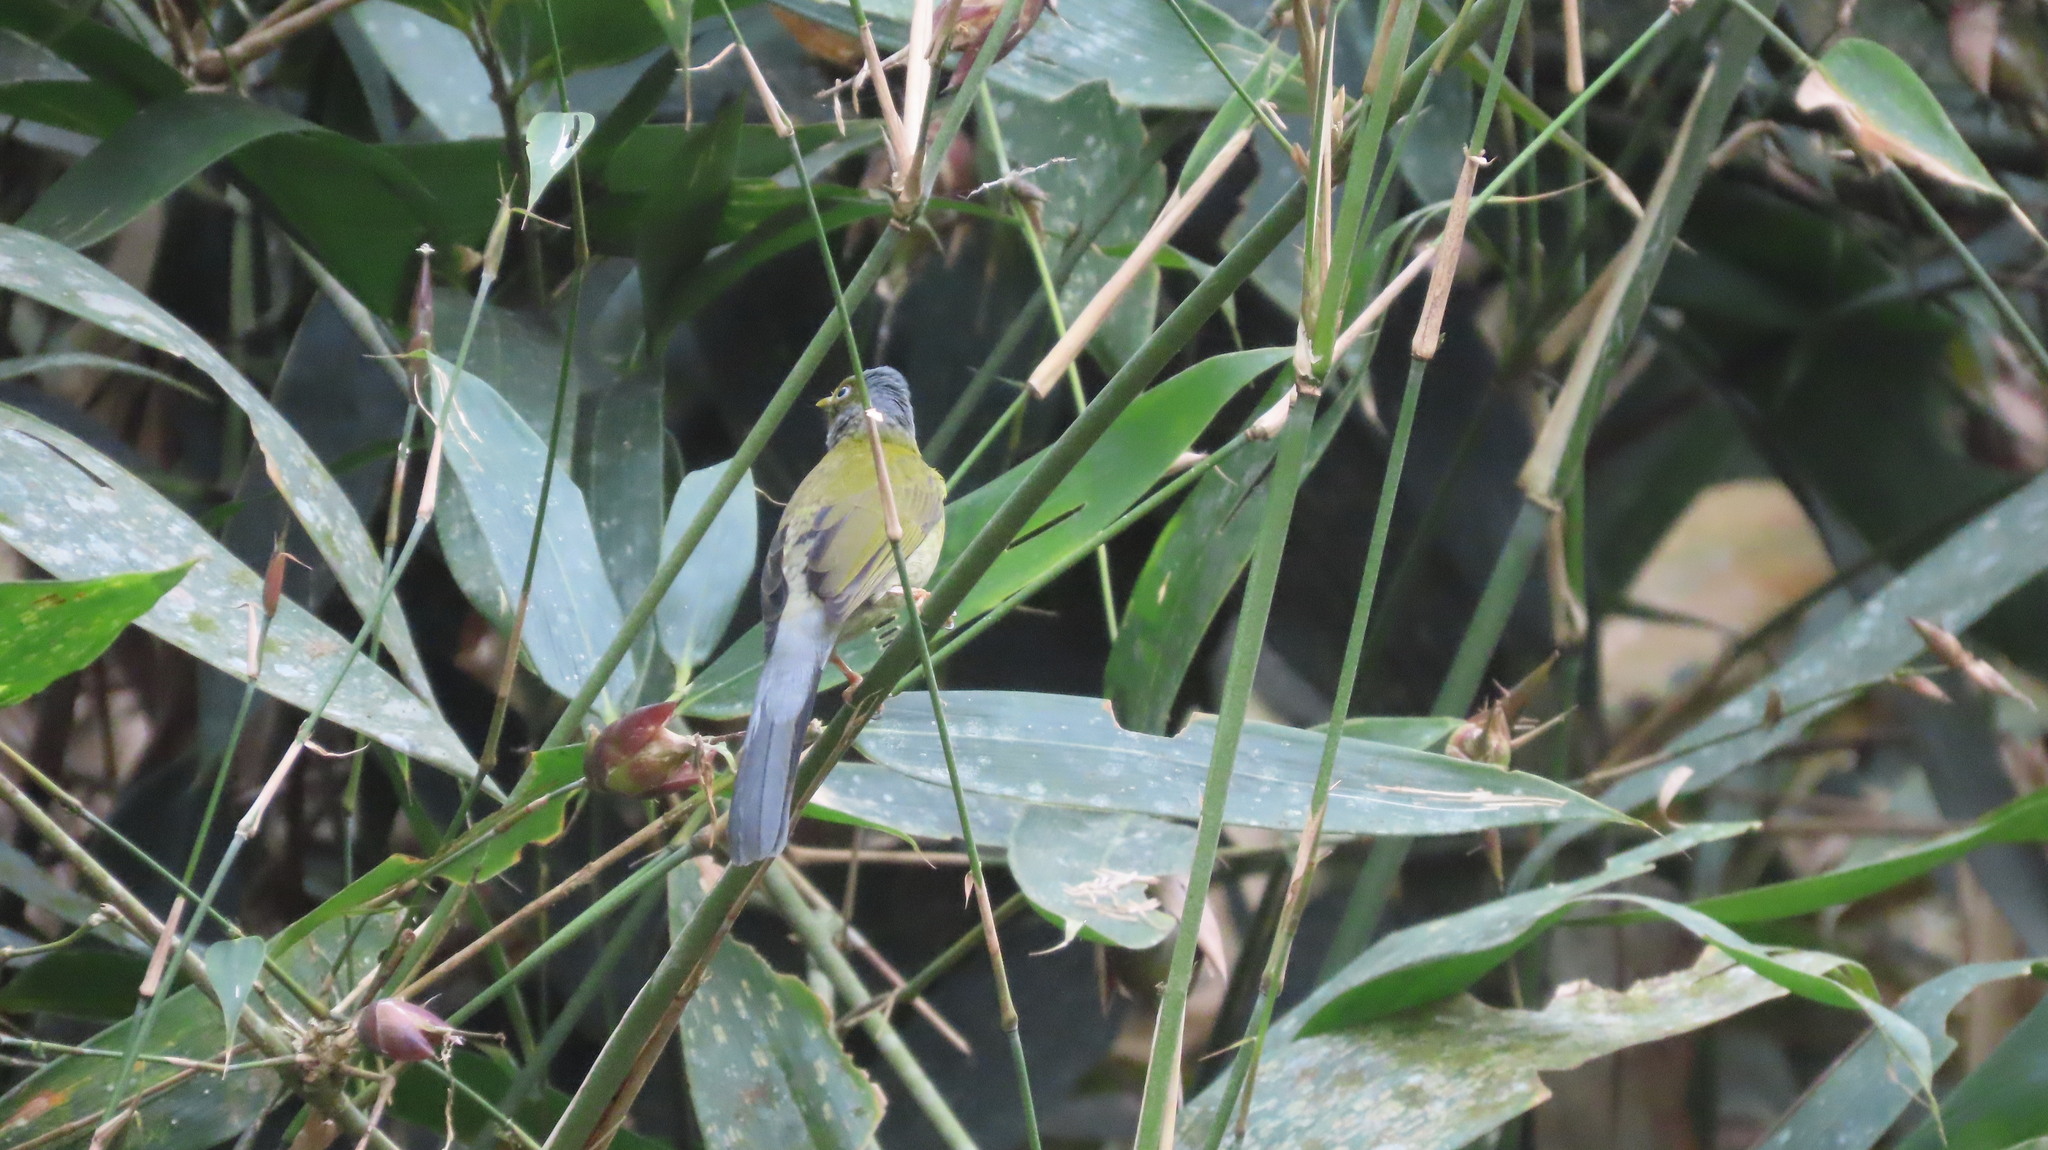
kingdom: Animalia
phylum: Chordata
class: Aves
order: Passeriformes
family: Pycnonotidae
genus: Microtarsus
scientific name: Microtarsus
